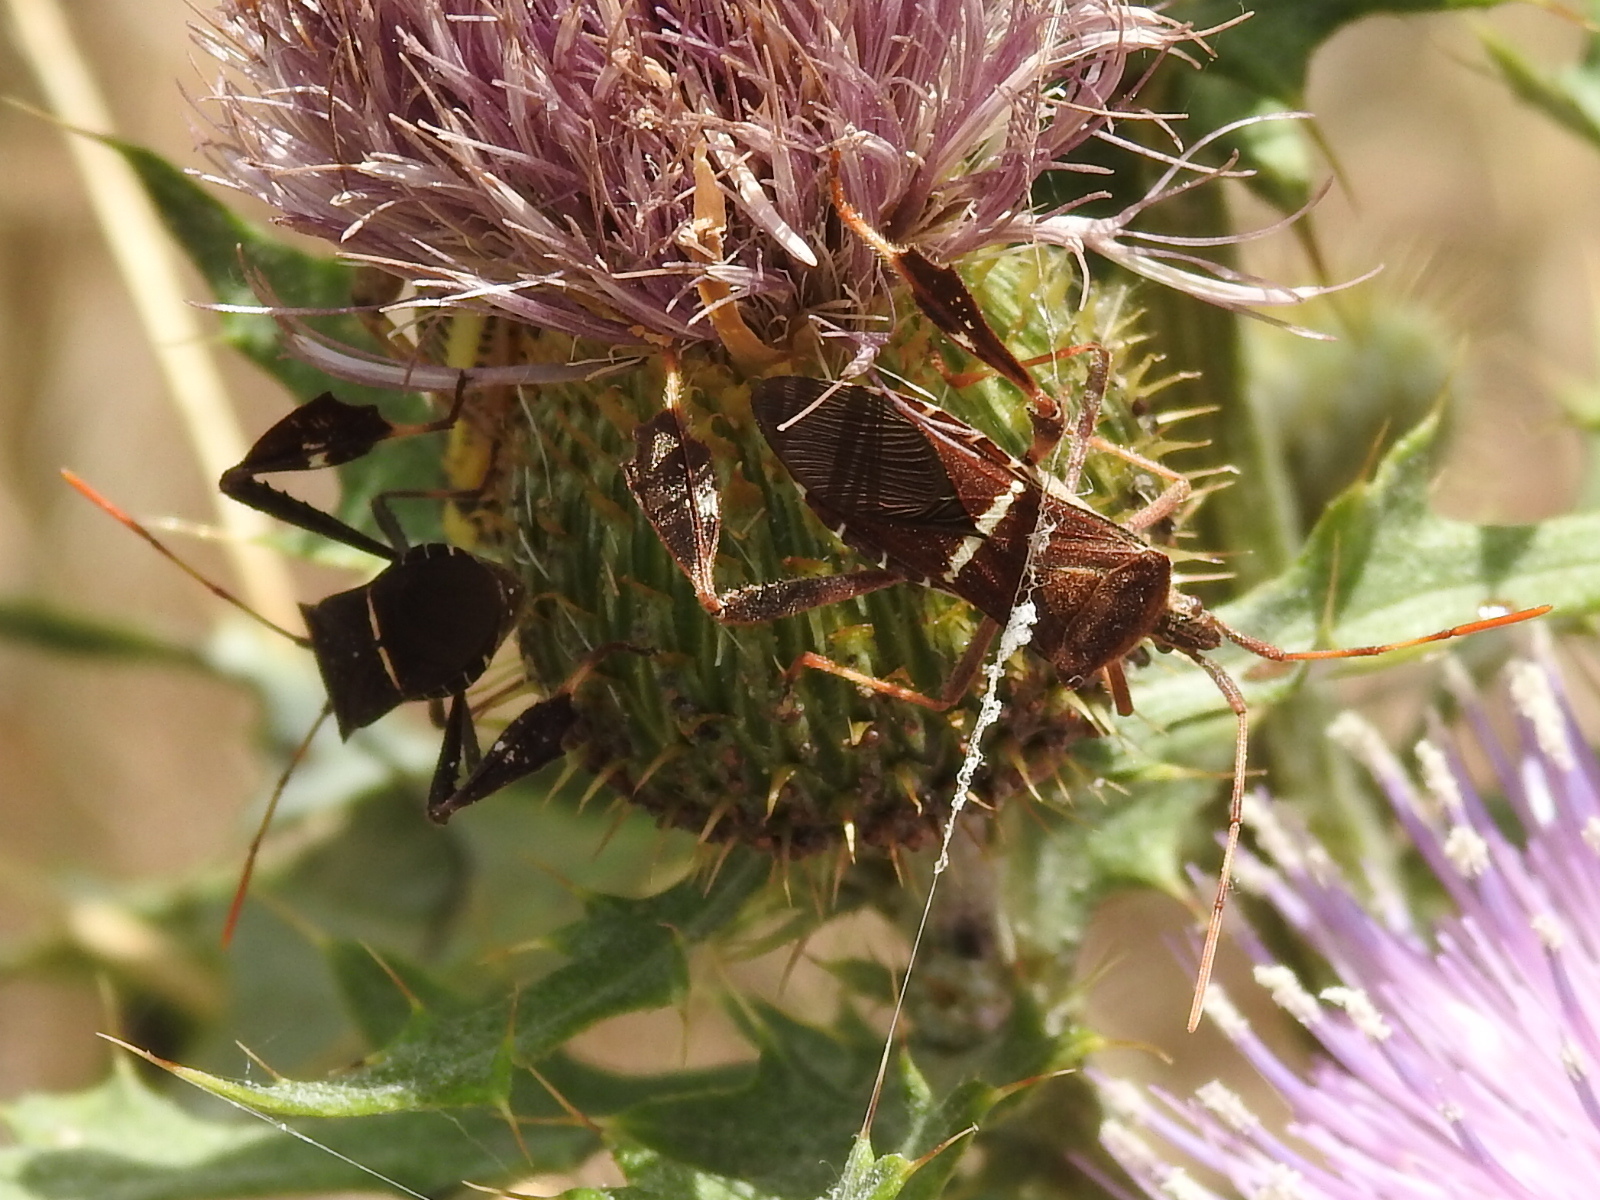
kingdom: Animalia
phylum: Arthropoda
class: Insecta
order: Hemiptera
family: Coreidae
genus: Leptoglossus
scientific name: Leptoglossus phyllopus
